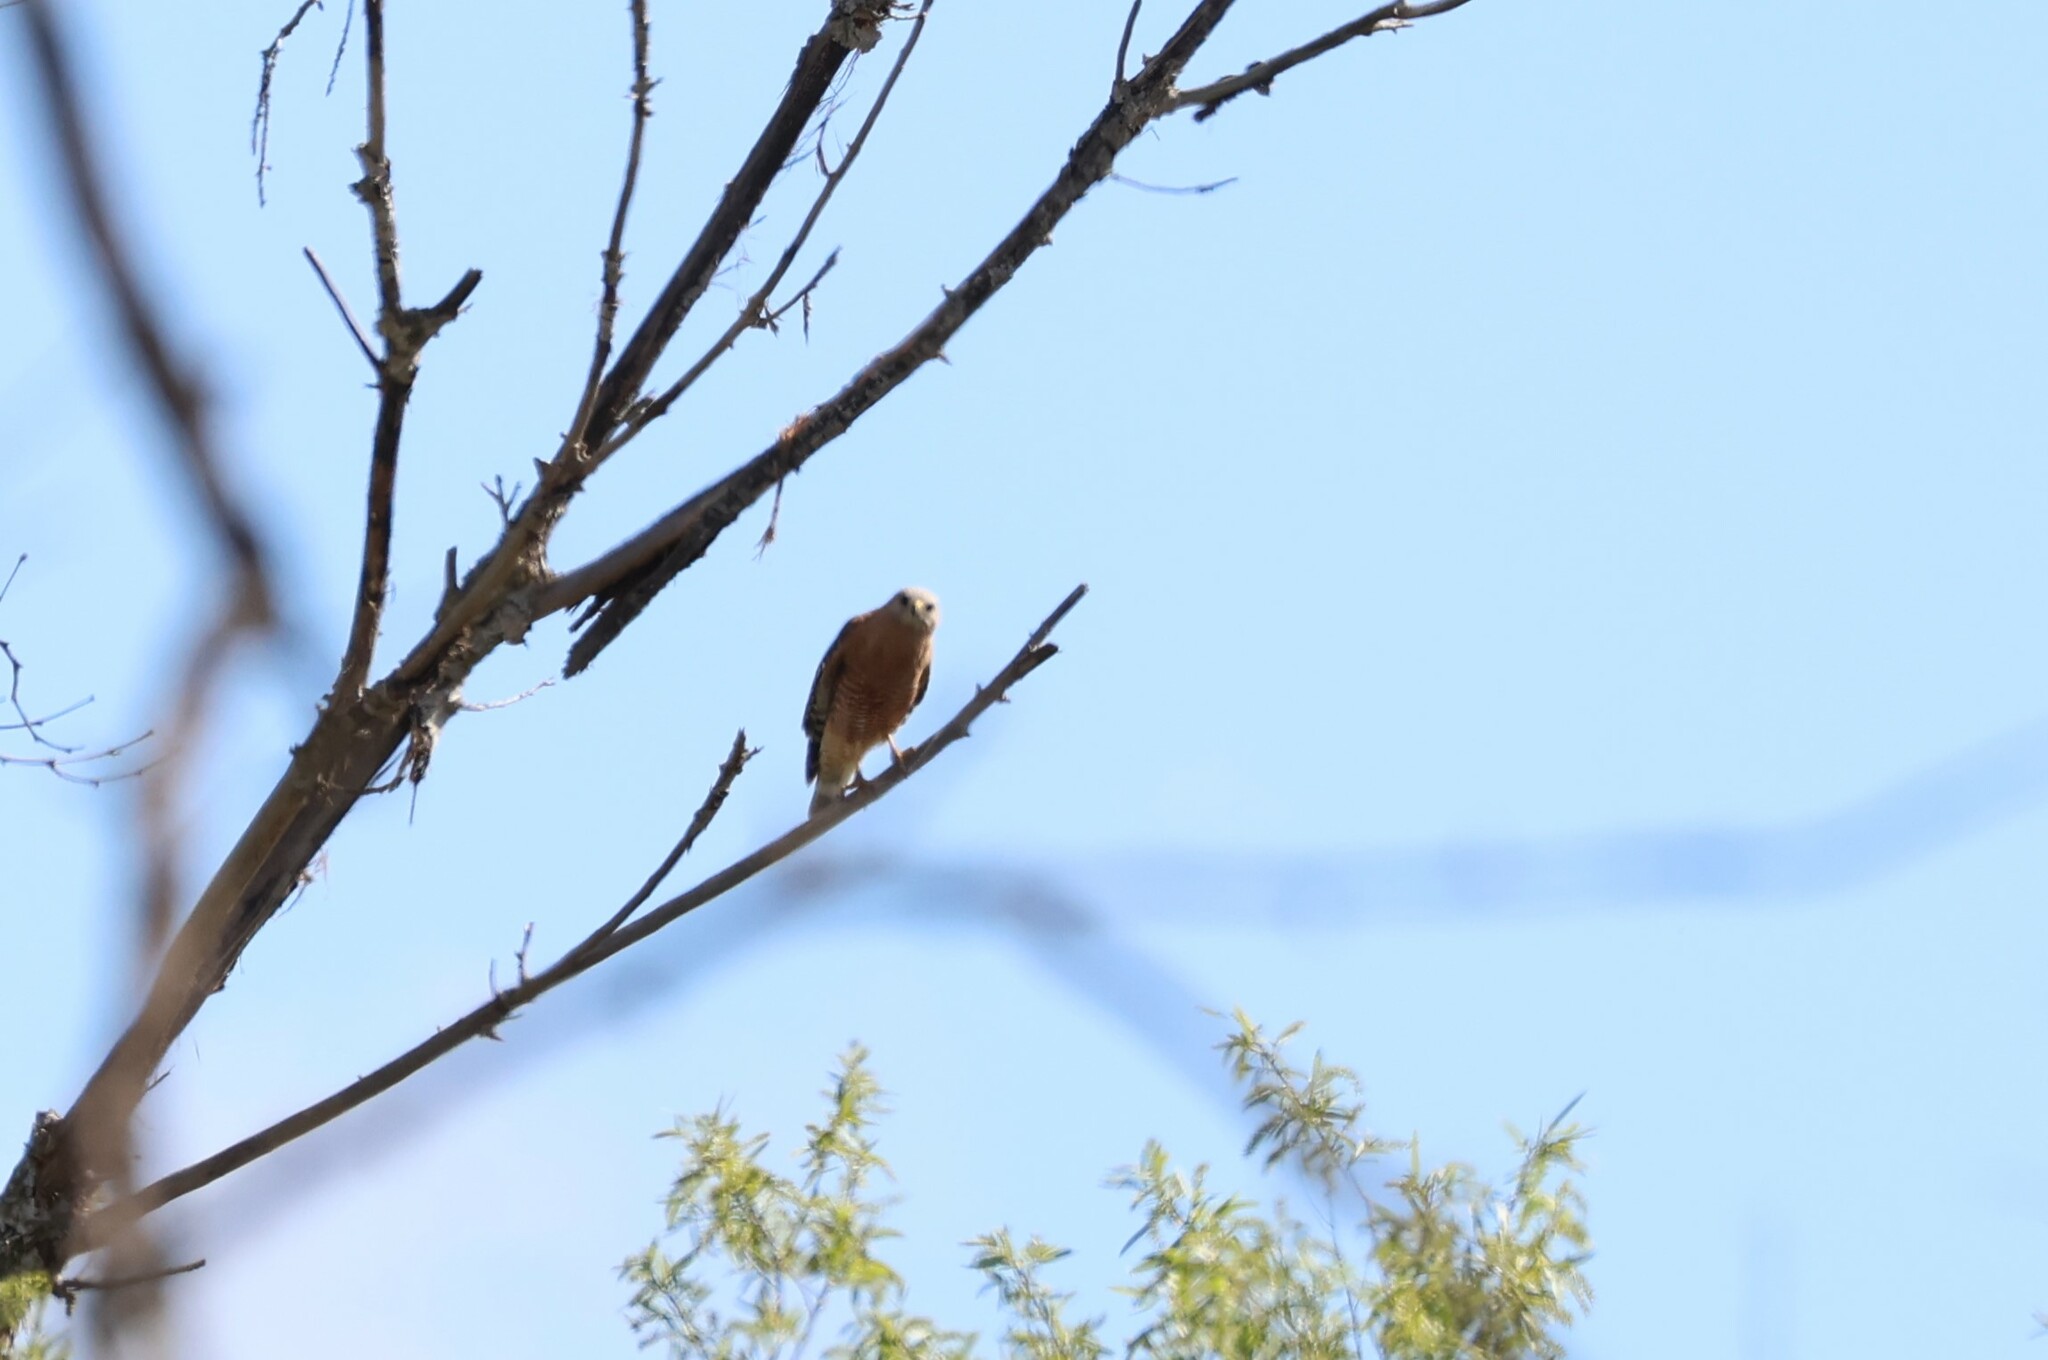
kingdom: Animalia
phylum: Chordata
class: Aves
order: Accipitriformes
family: Accipitridae
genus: Buteo
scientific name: Buteo lineatus
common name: Red-shouldered hawk
